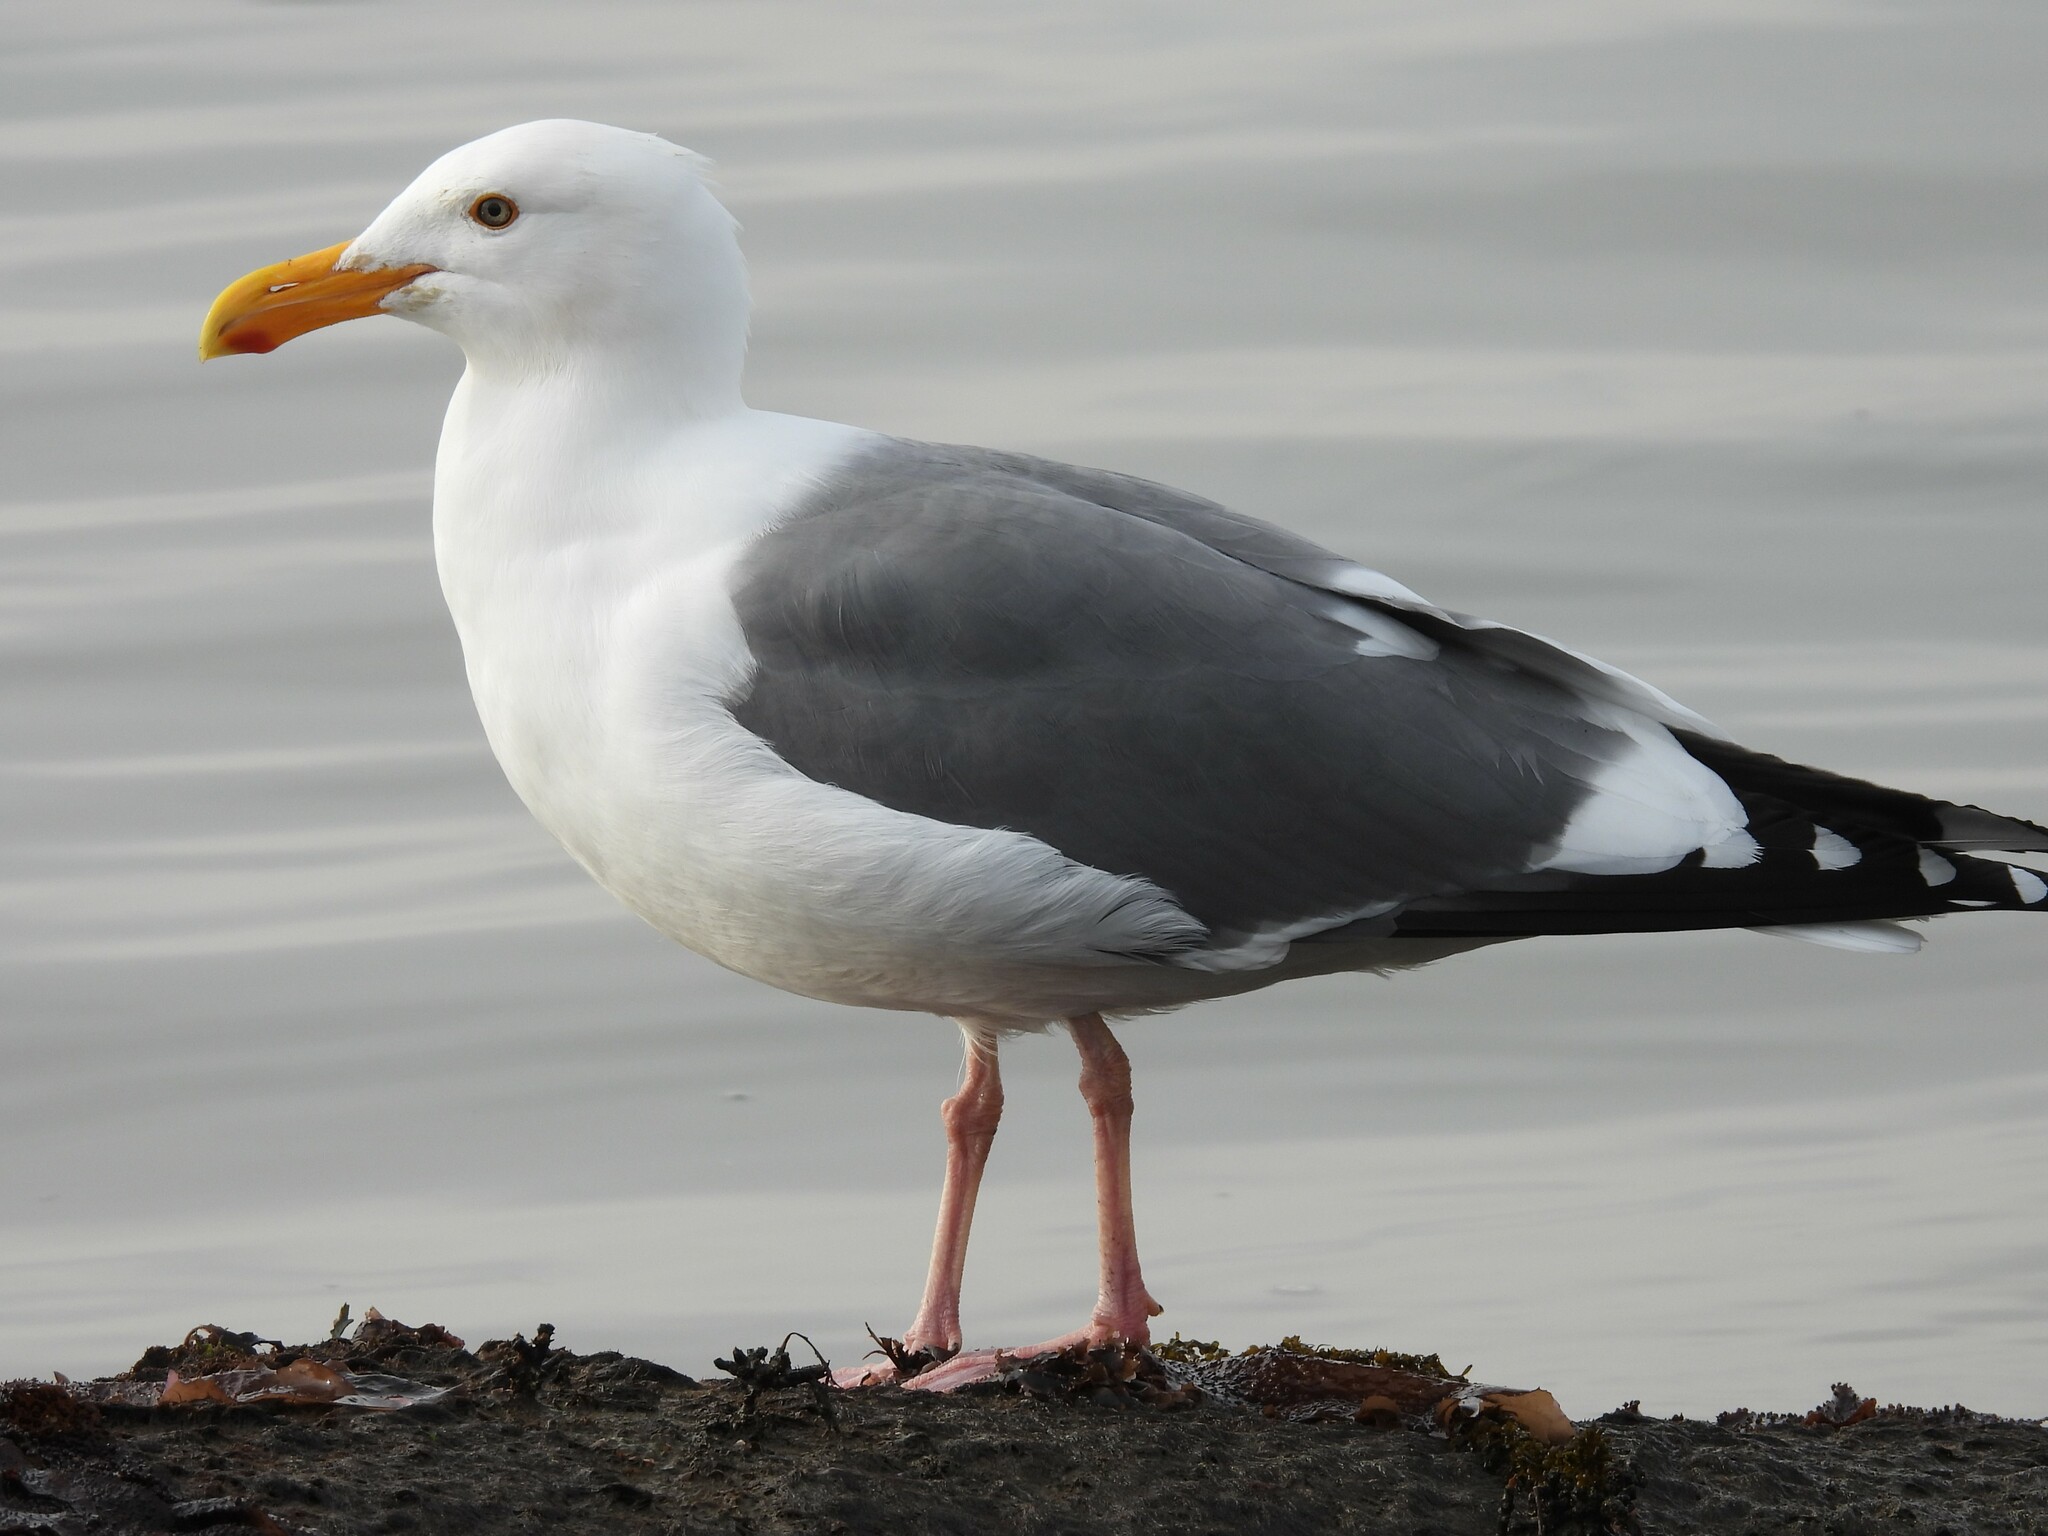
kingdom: Animalia
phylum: Chordata
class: Aves
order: Charadriiformes
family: Laridae
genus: Larus
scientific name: Larus occidentalis
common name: Western gull
